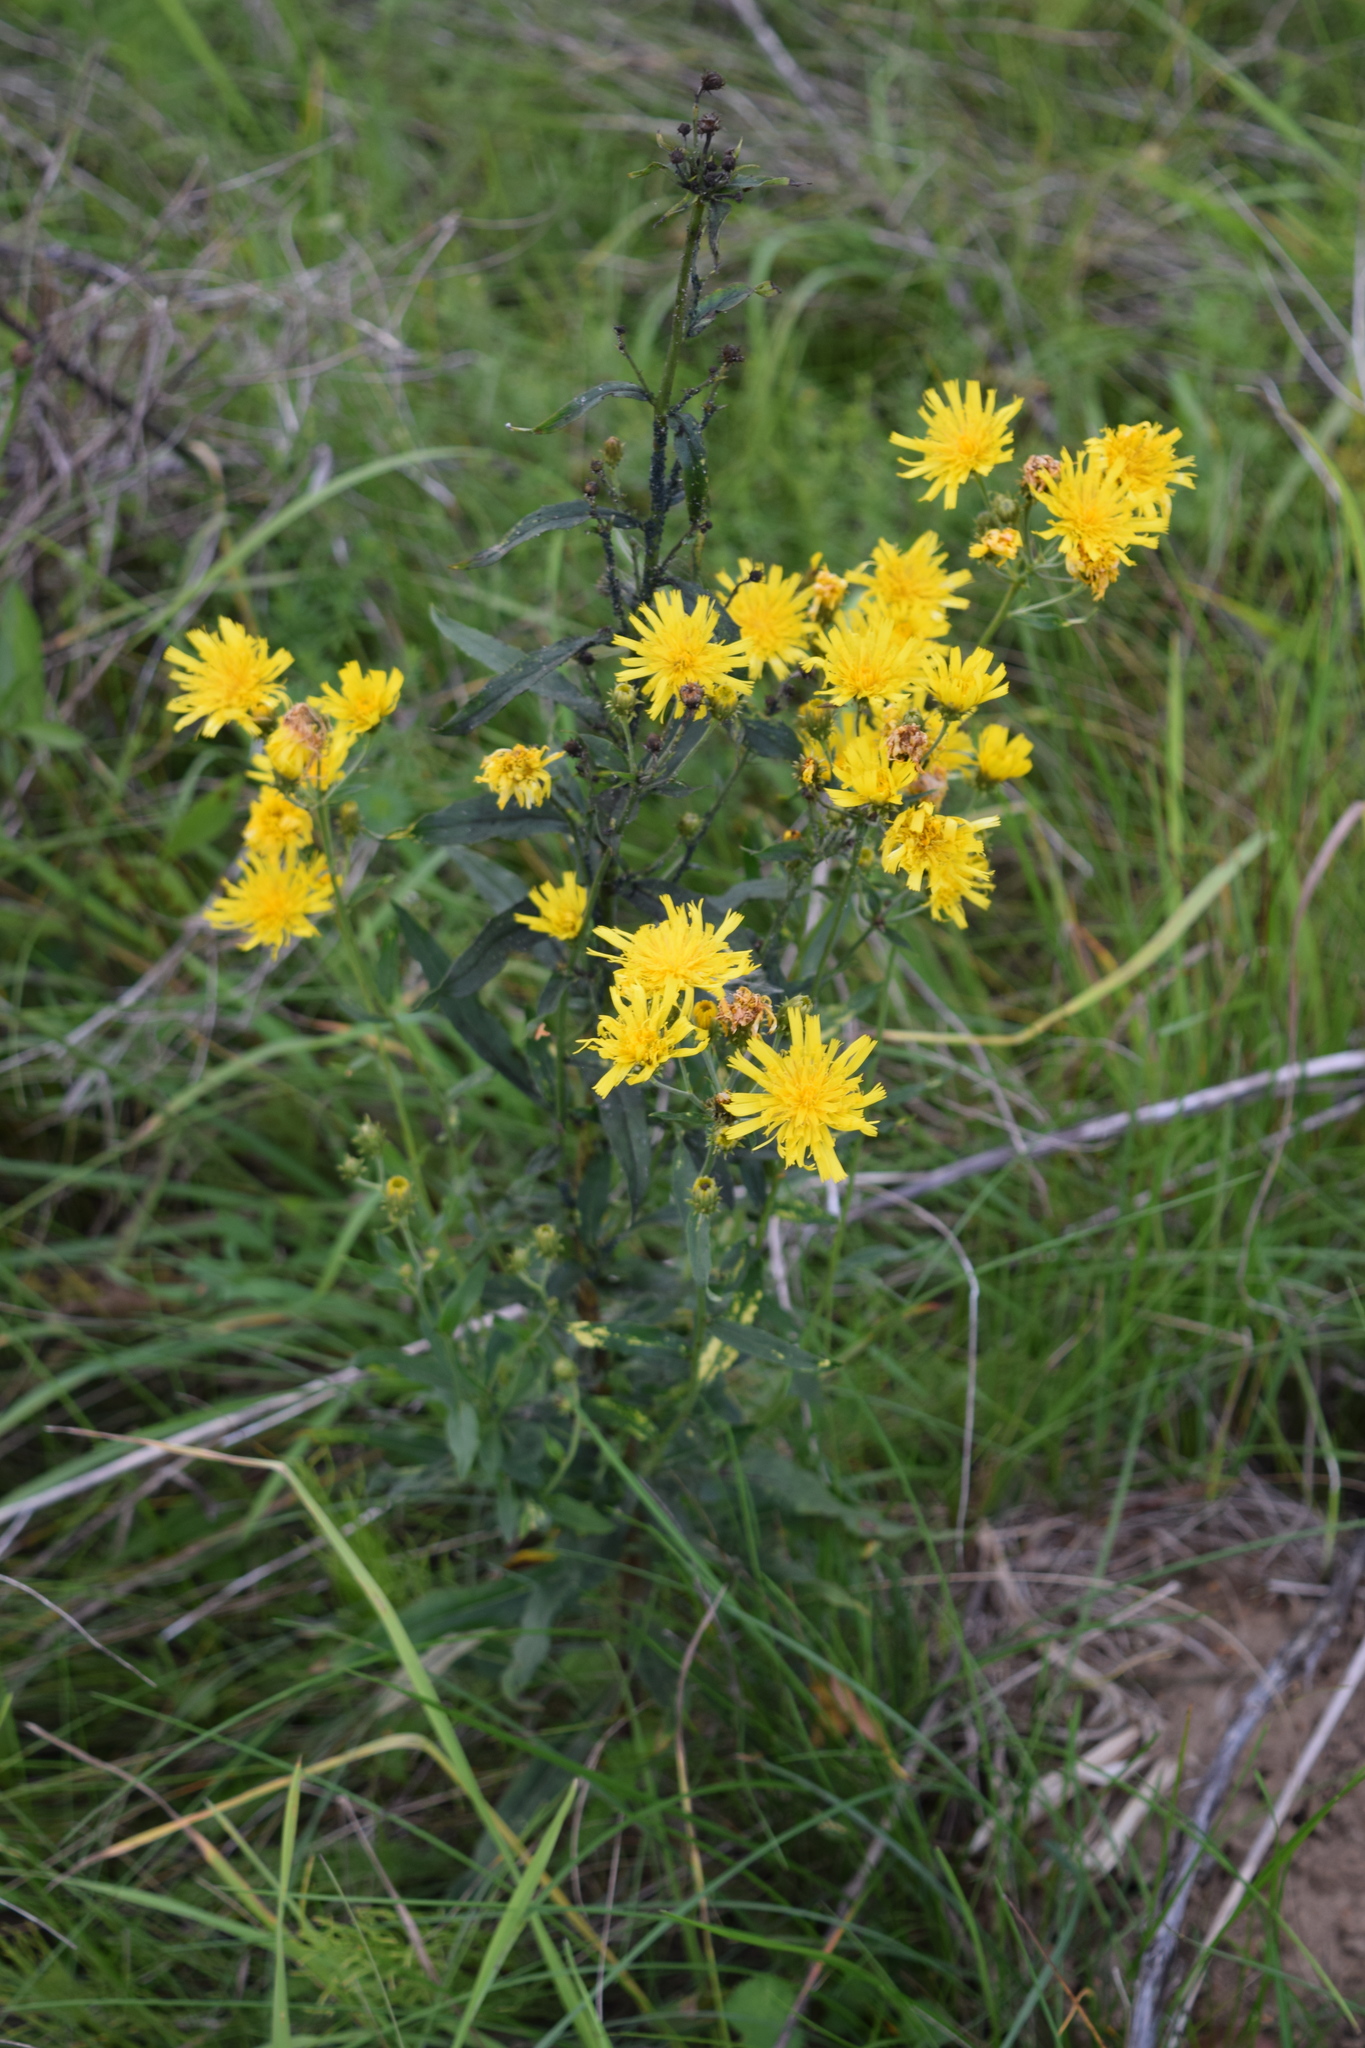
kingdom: Plantae
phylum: Tracheophyta
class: Magnoliopsida
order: Asterales
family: Asteraceae
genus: Hieracium
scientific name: Hieracium umbellatum
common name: Northern hawkweed
